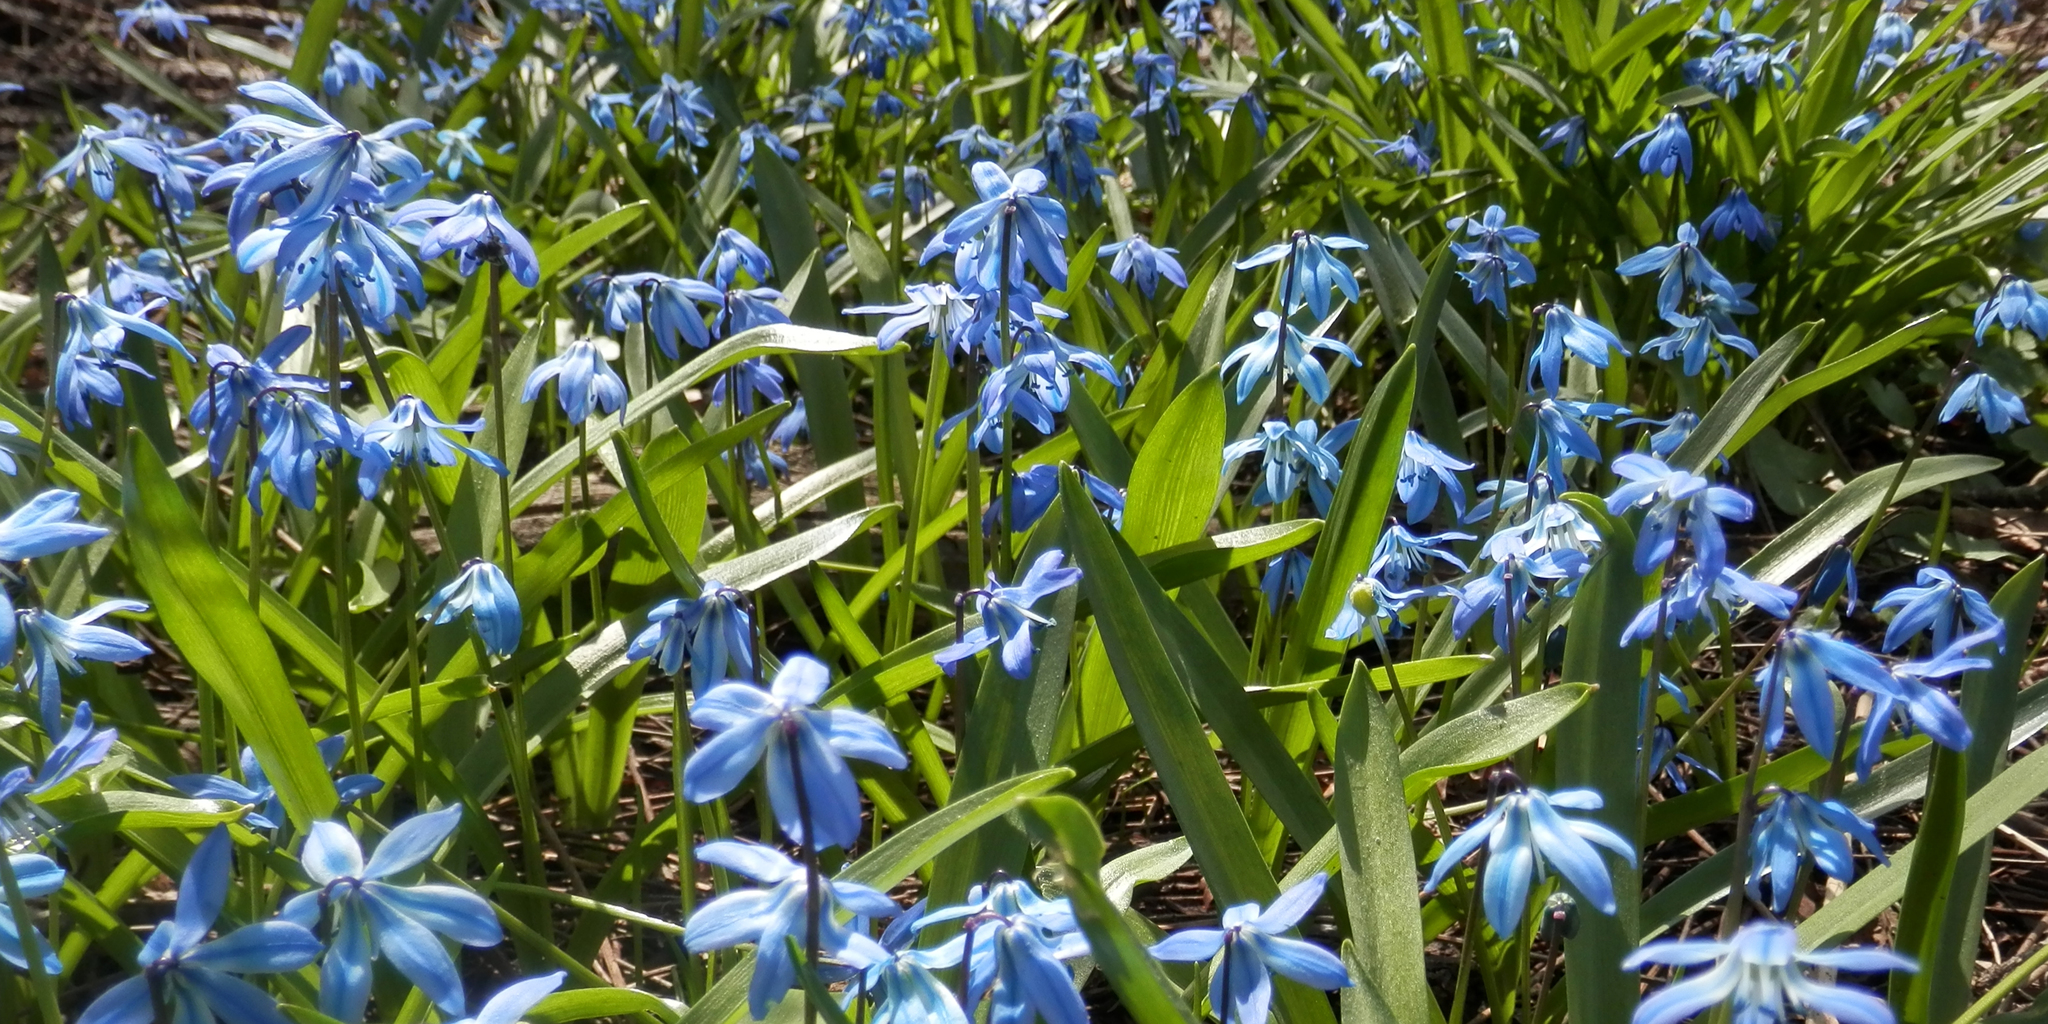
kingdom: Plantae
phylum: Tracheophyta
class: Liliopsida
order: Asparagales
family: Asparagaceae
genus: Scilla
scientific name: Scilla siberica
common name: Siberian squill
